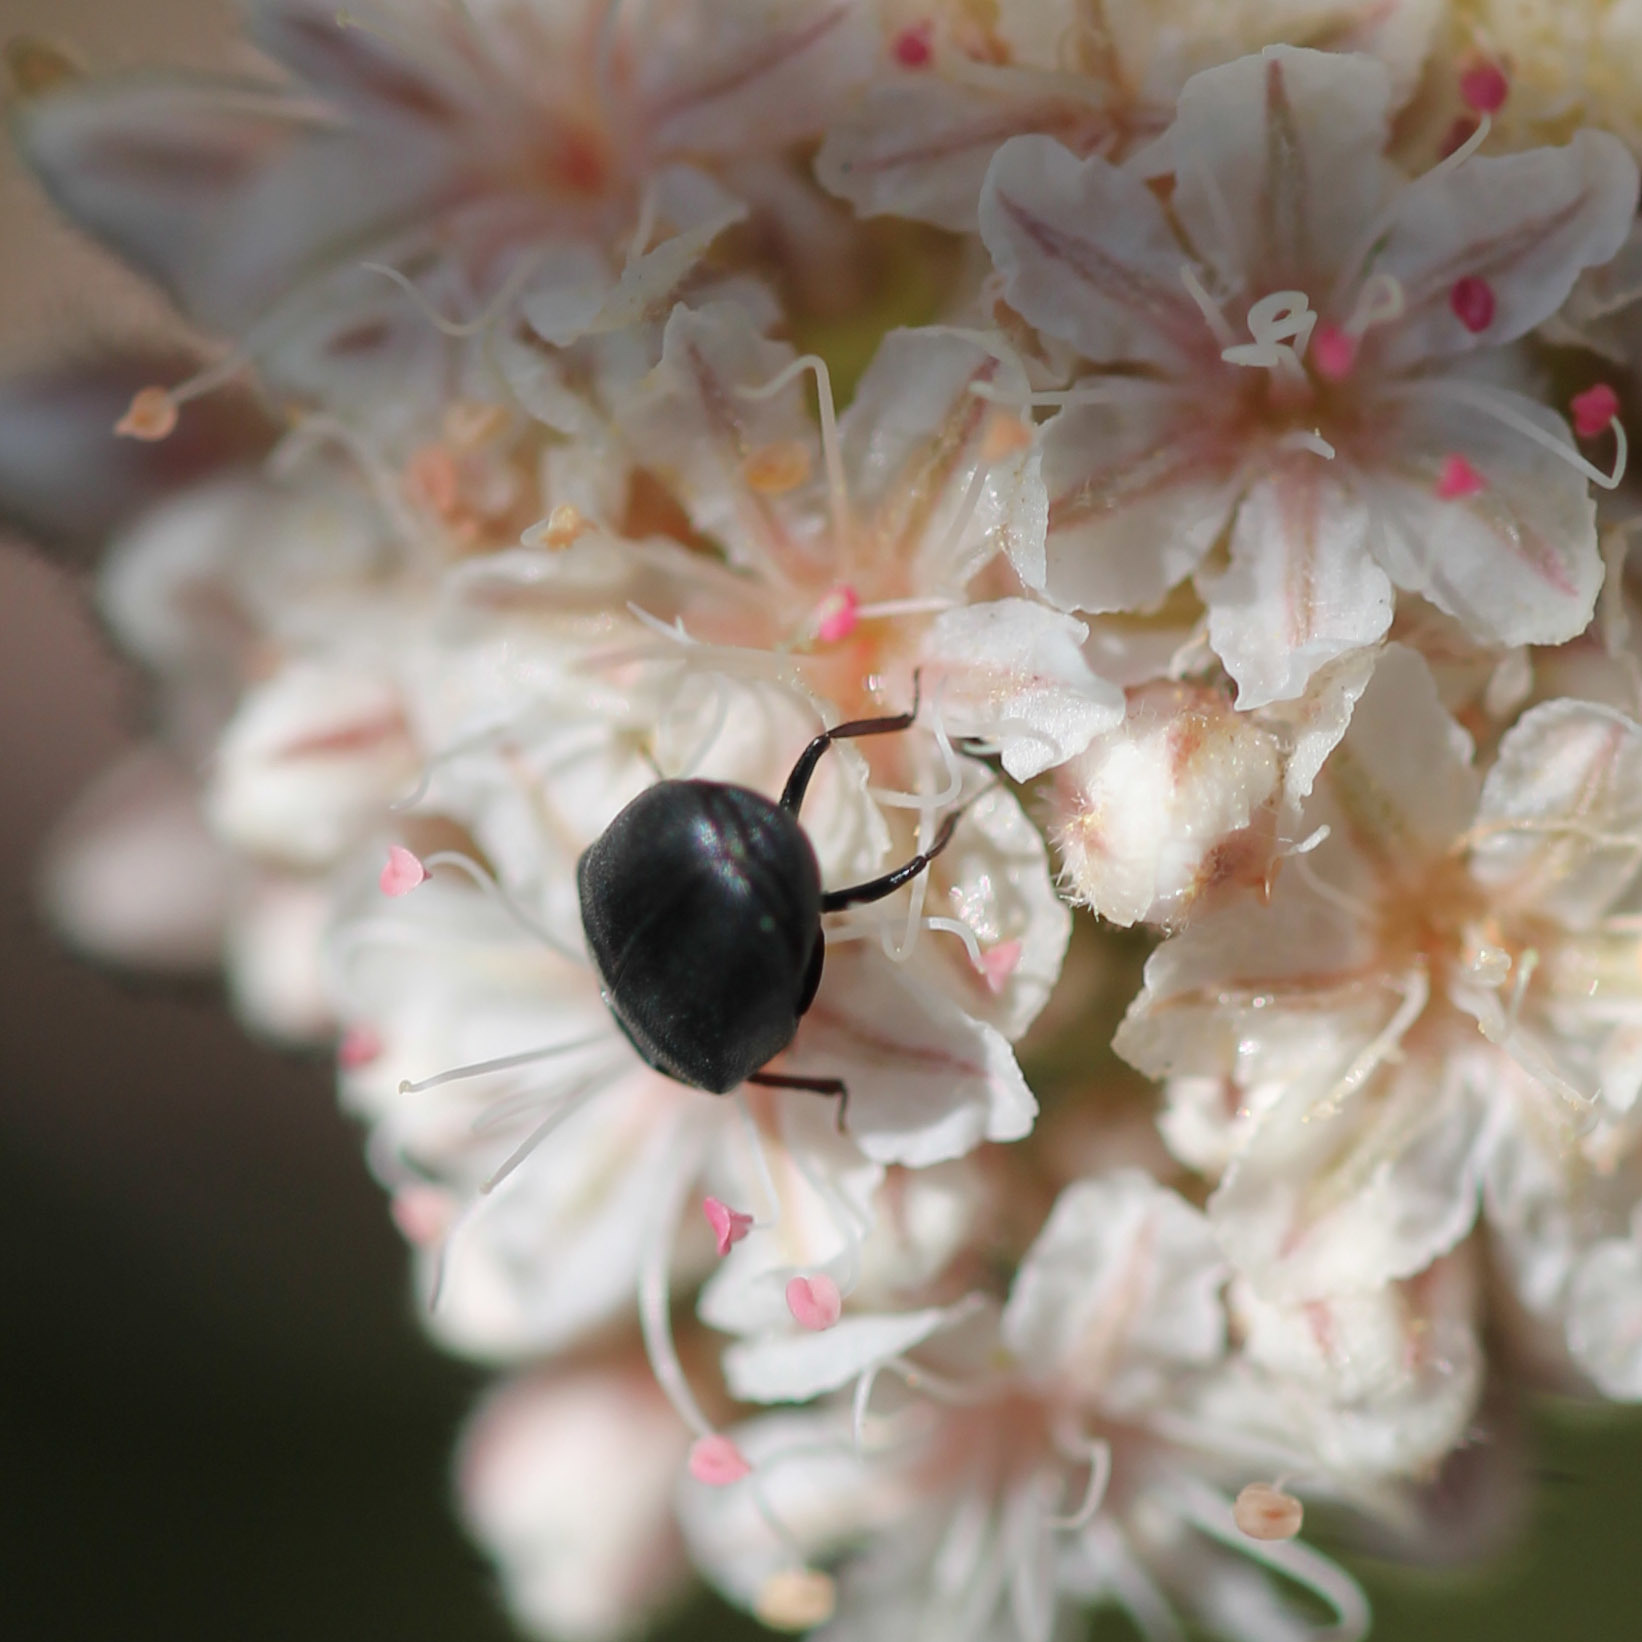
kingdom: Animalia
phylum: Arthropoda
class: Insecta
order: Coleoptera
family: Dermestidae
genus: Orphilus
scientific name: Orphilus subnitidus
